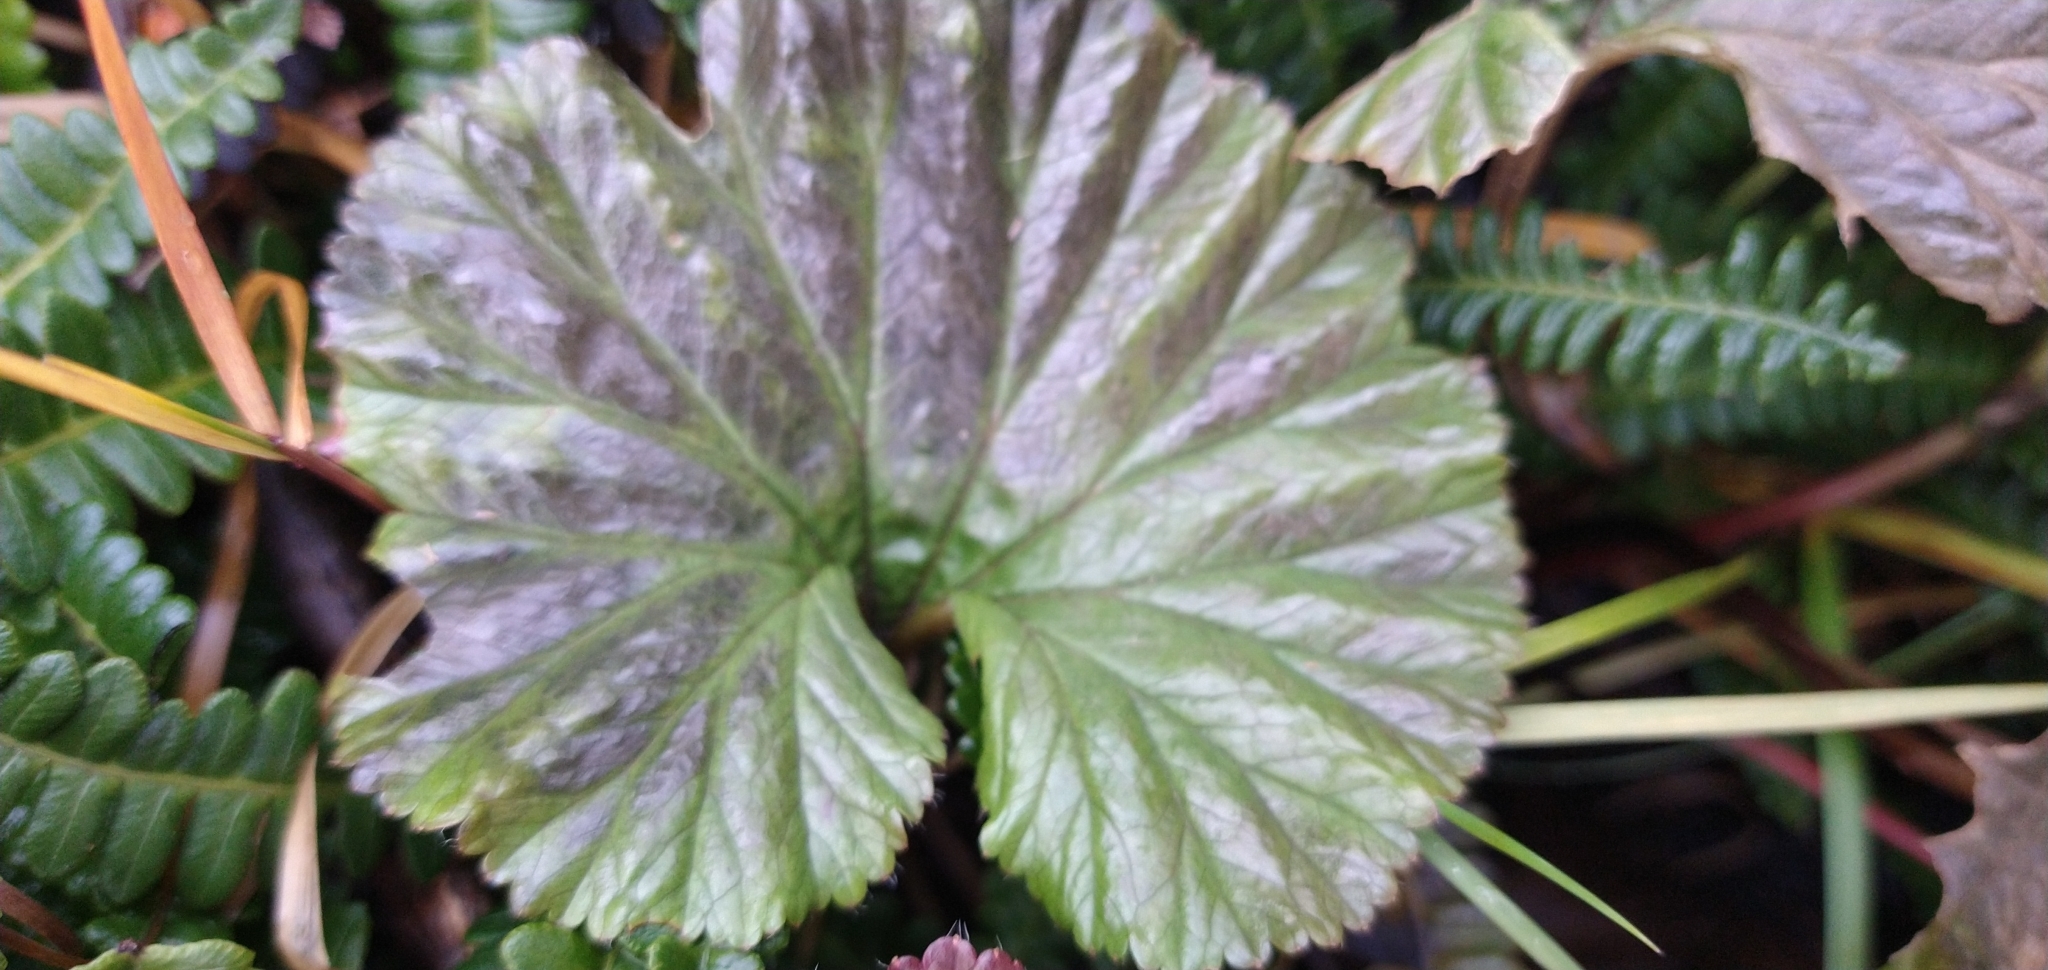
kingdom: Plantae
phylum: Tracheophyta
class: Magnoliopsida
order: Gunnerales
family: Gunneraceae
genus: Gunnera
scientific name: Gunnera magellanica
